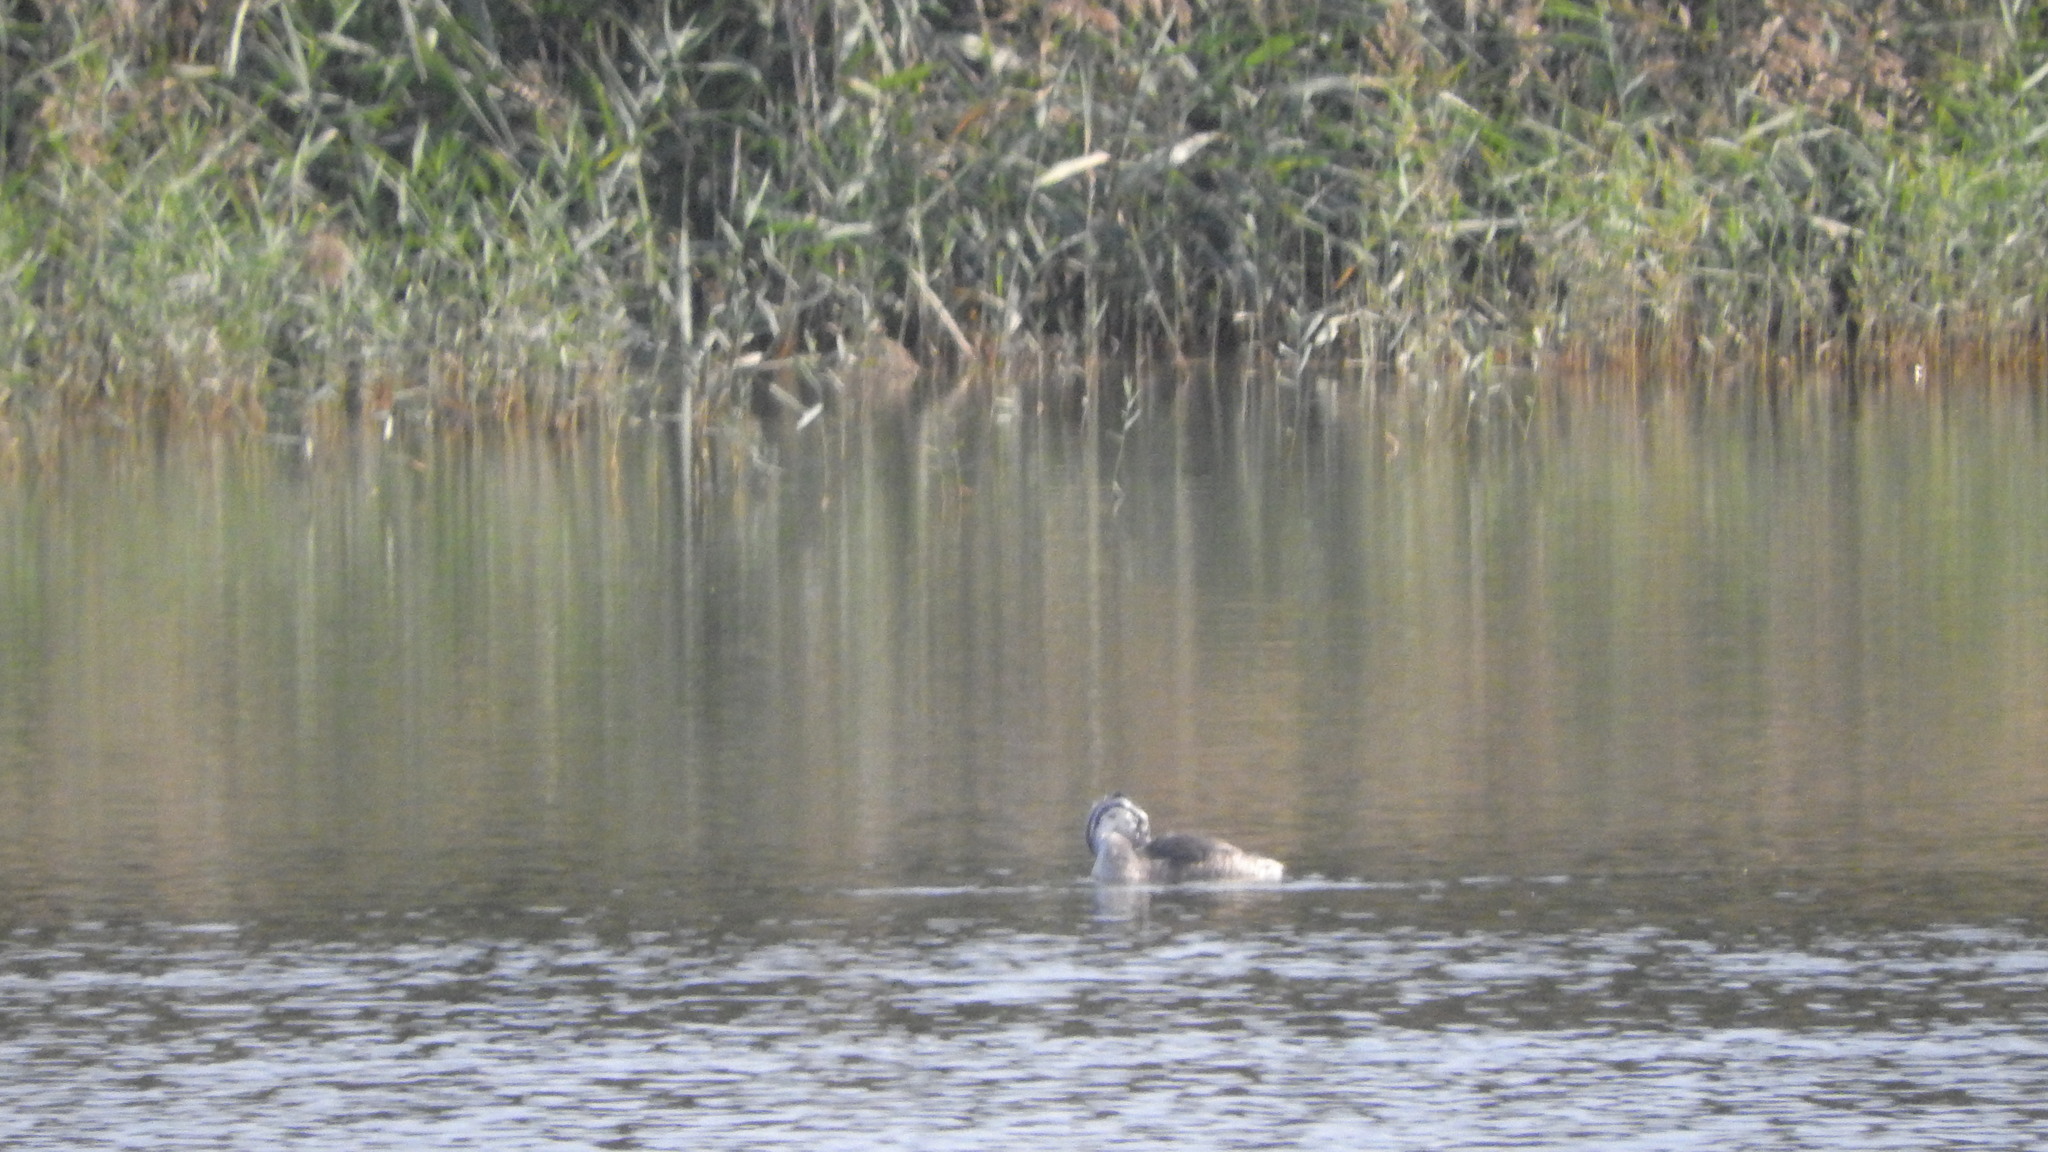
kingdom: Animalia
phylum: Chordata
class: Aves
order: Podicipediformes
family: Podicipedidae
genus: Podiceps
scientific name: Podiceps cristatus
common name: Great crested grebe
